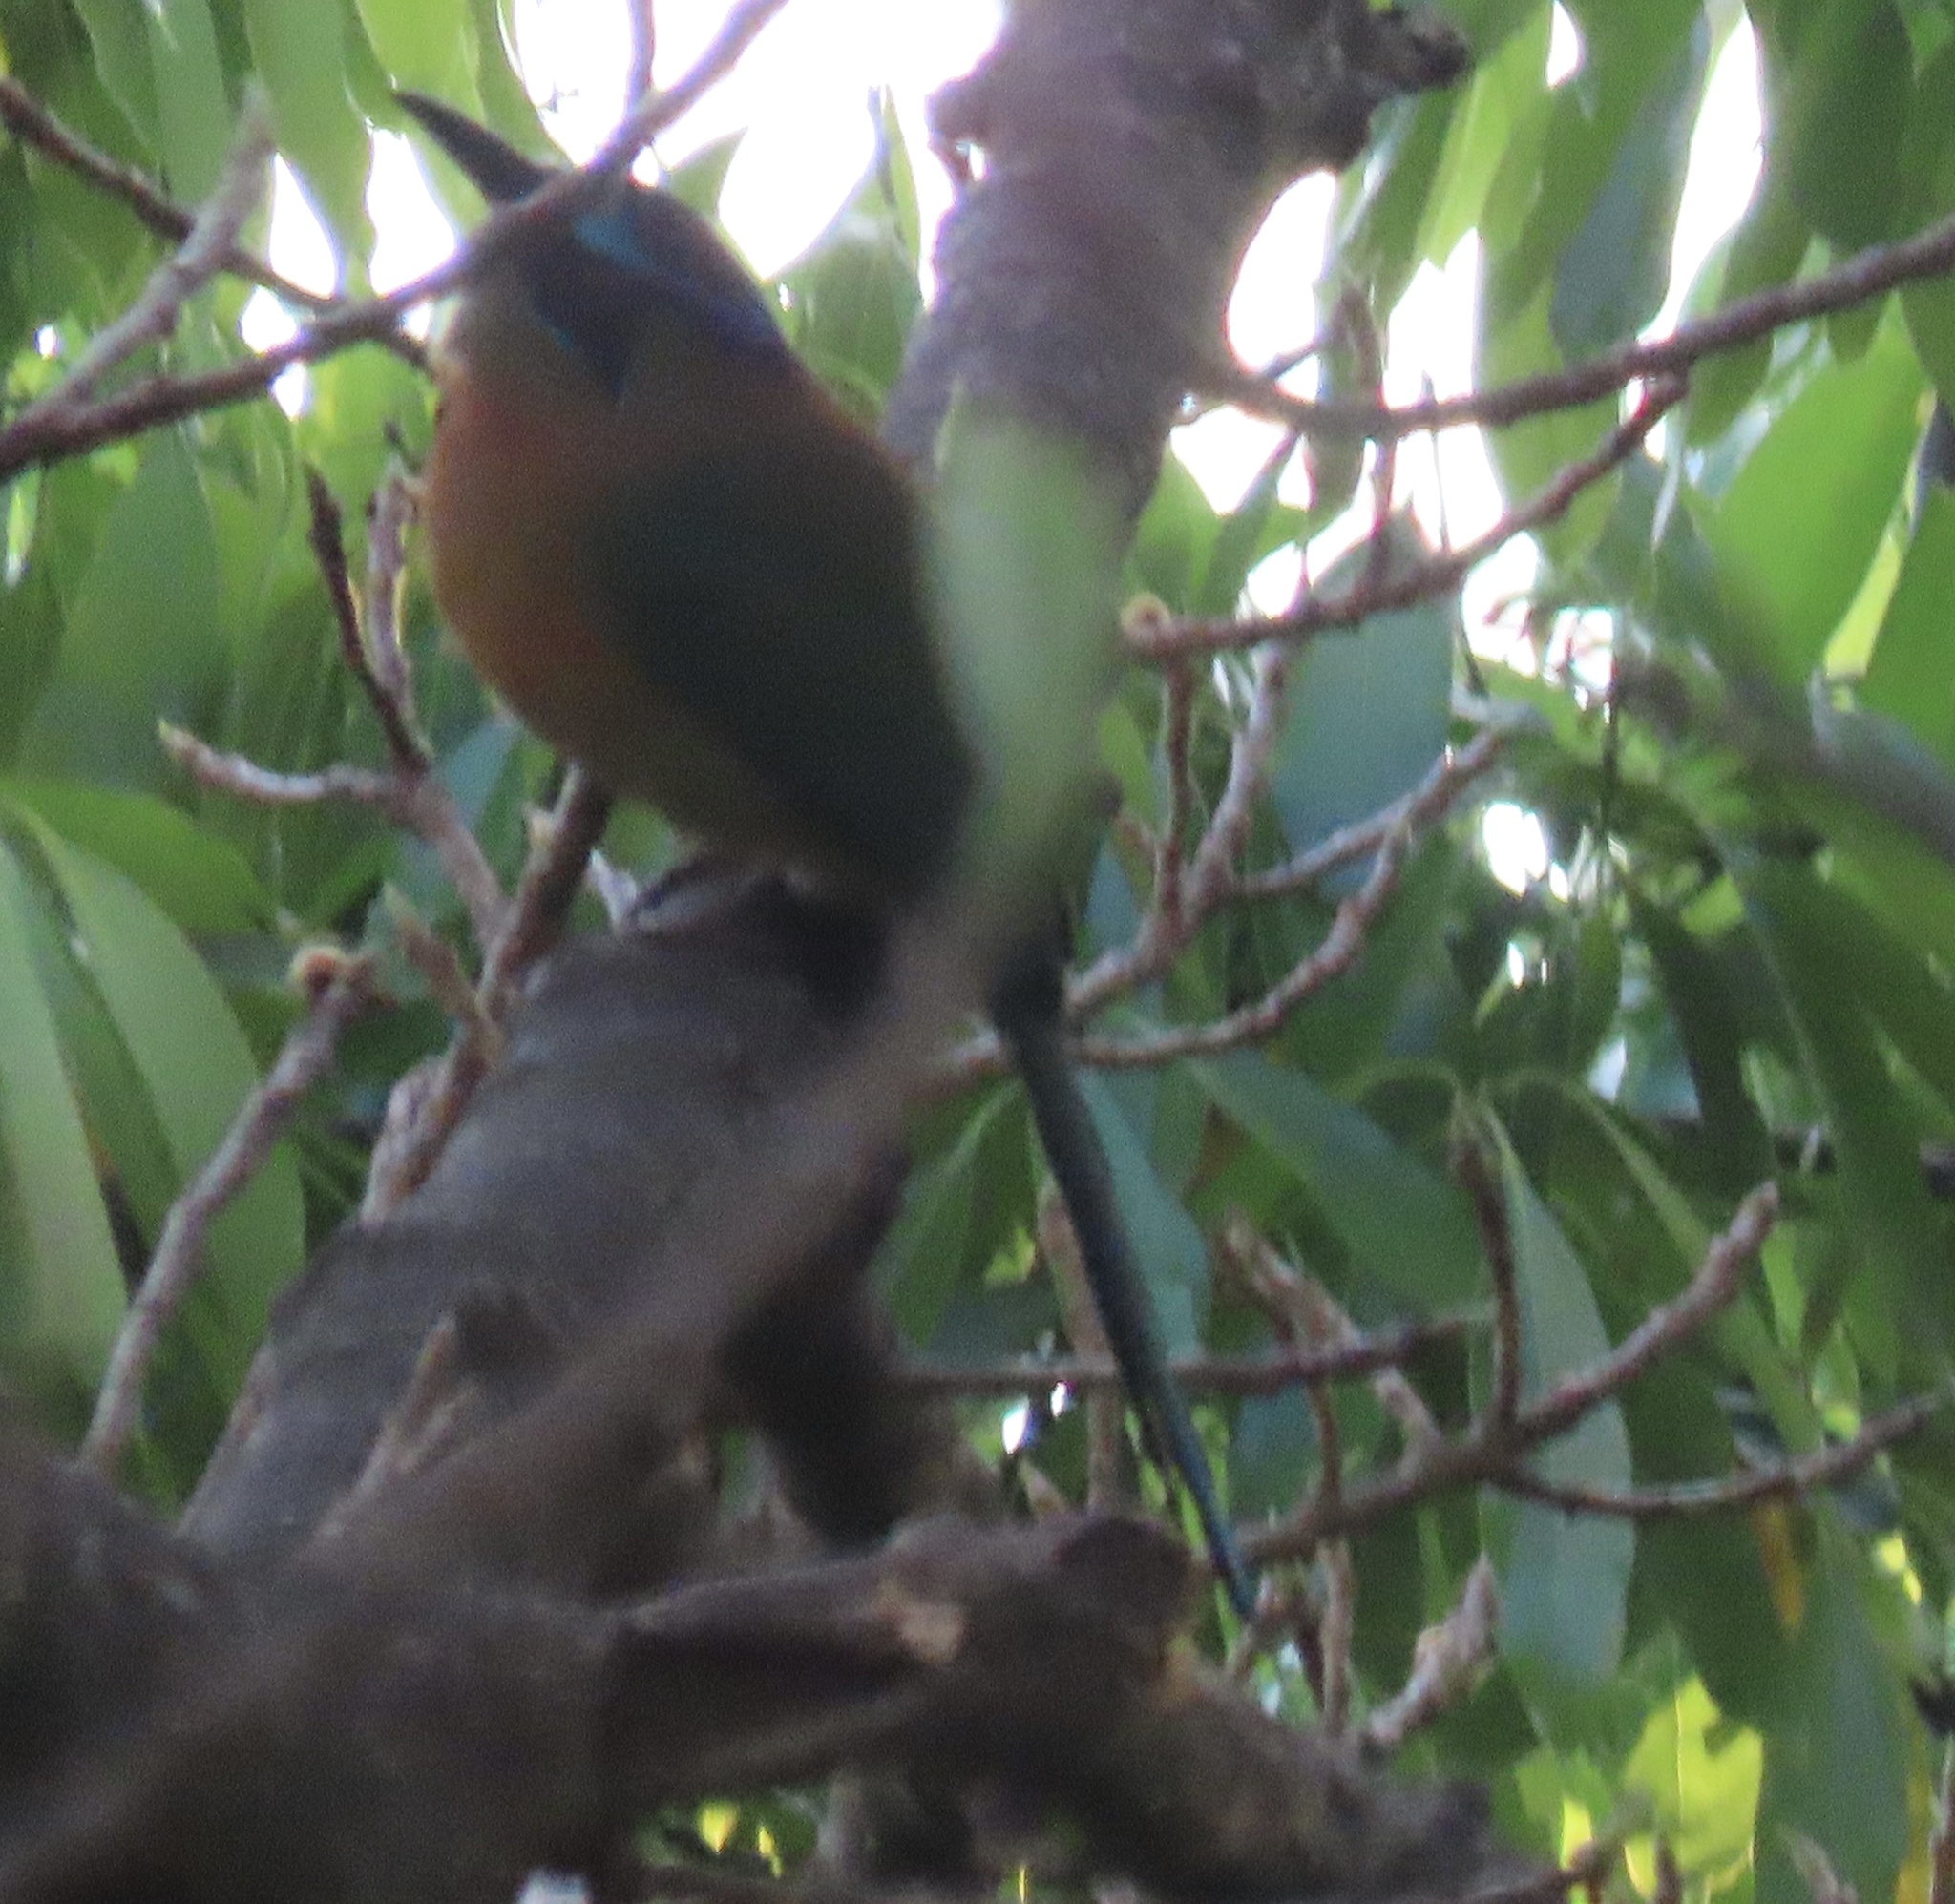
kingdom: Animalia
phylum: Chordata
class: Aves
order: Coraciiformes
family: Momotidae
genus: Momotus
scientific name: Momotus lessonii
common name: Lesson's motmot
